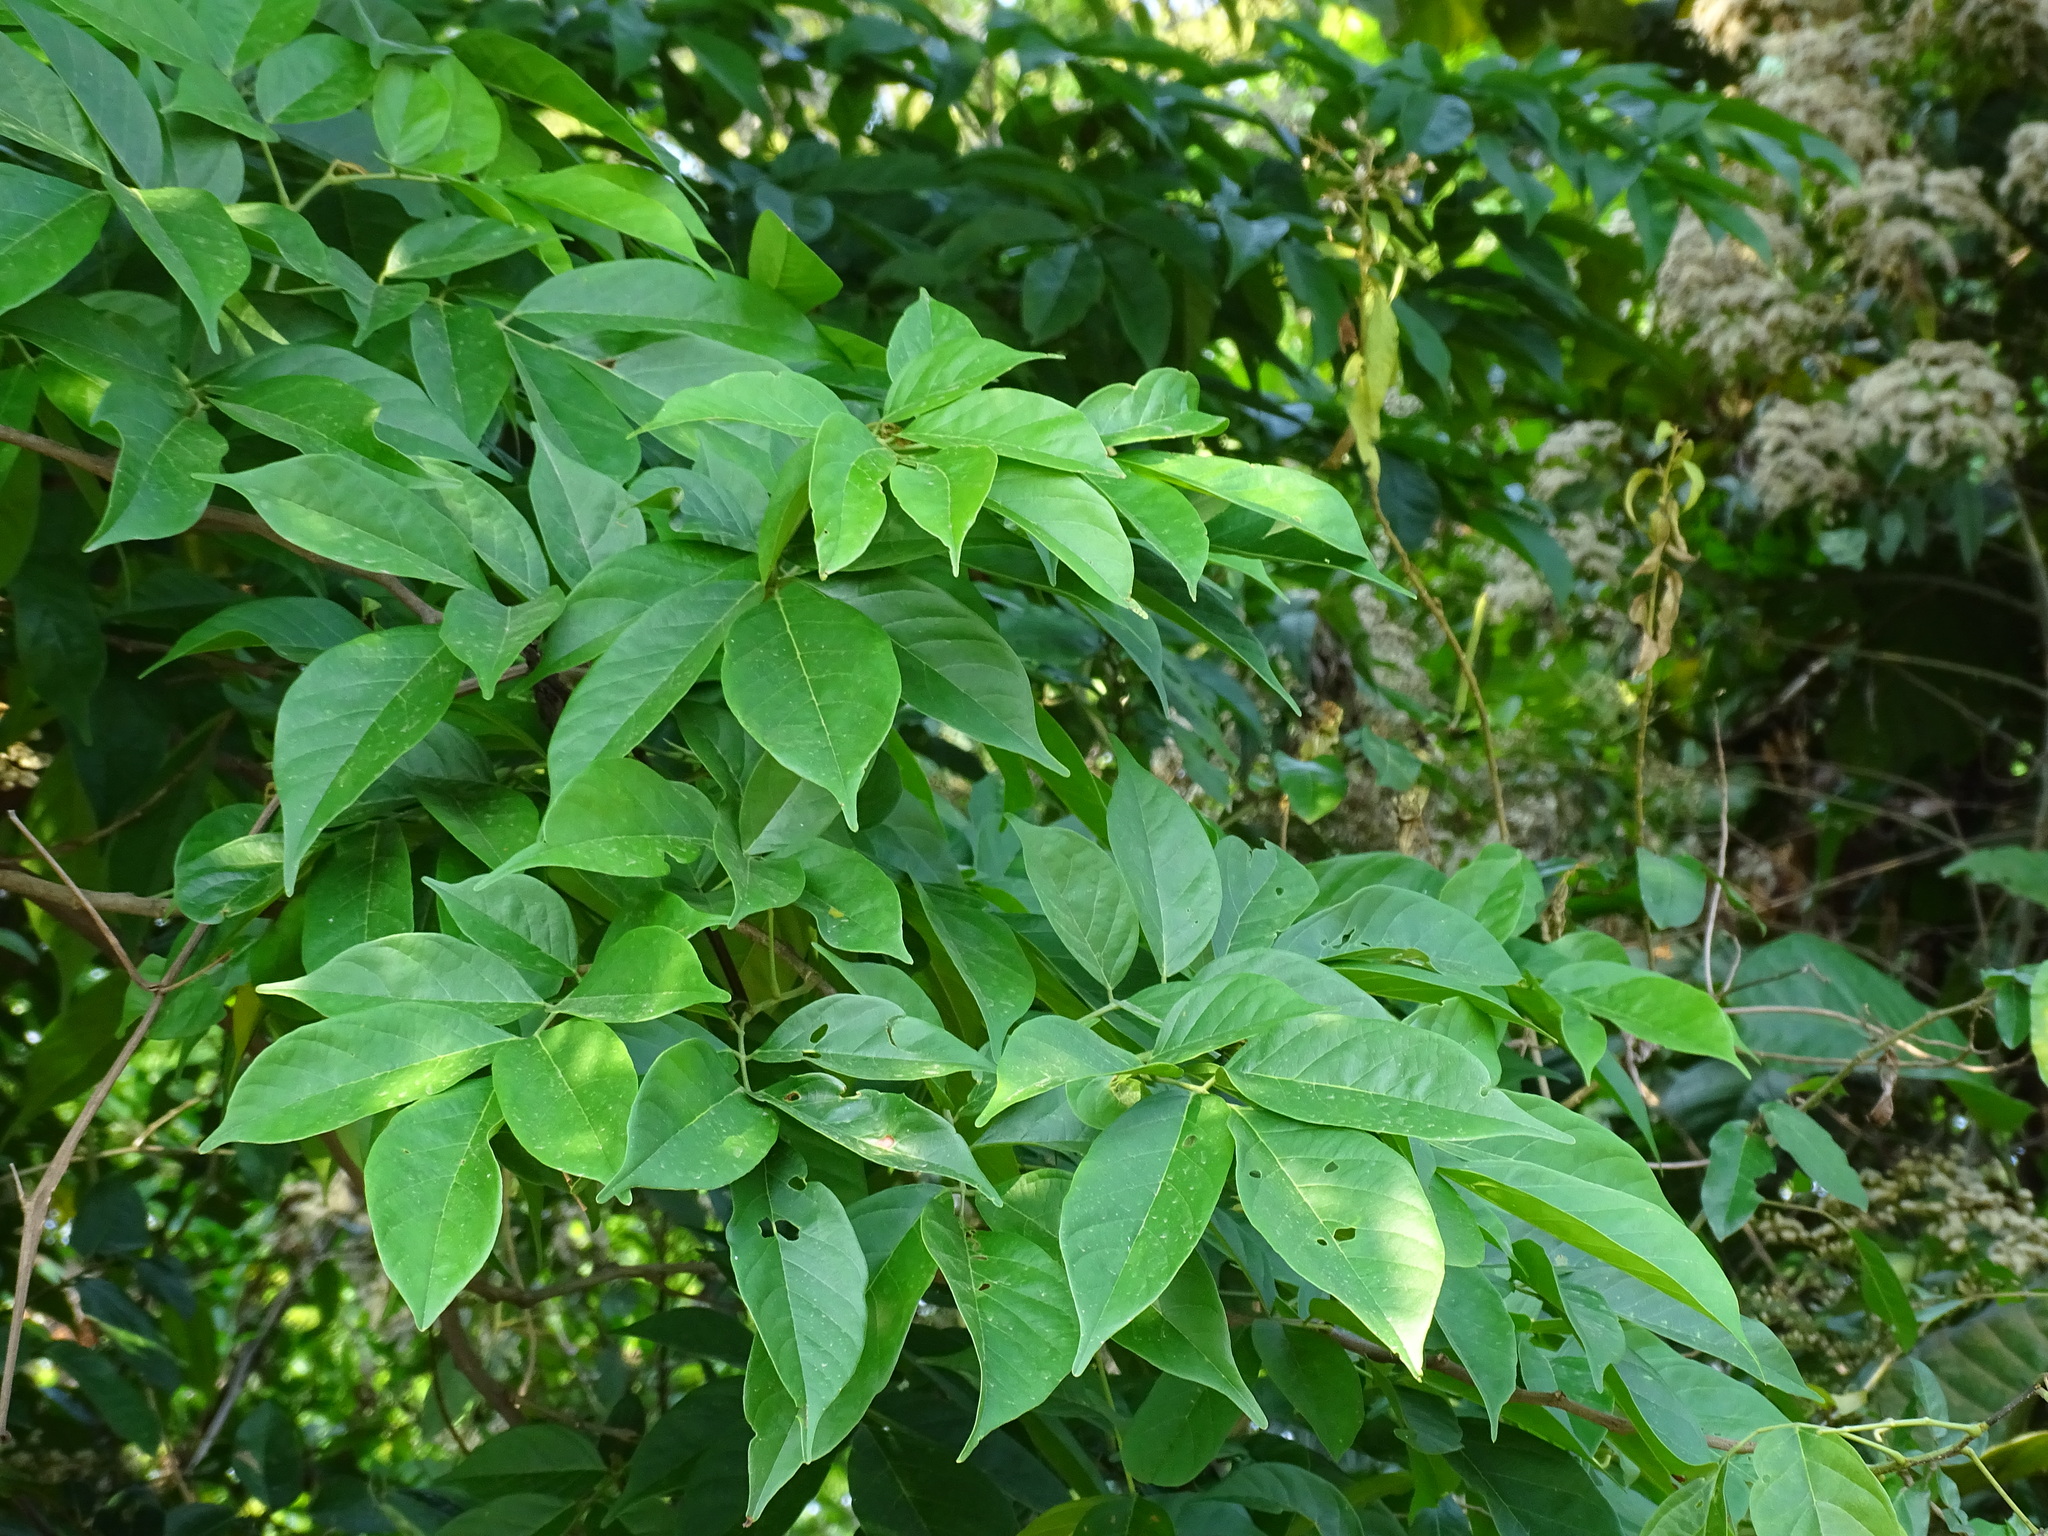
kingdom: Plantae
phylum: Tracheophyta
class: Magnoliopsida
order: Fabales
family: Fabaceae
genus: Lonchocarpus
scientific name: Lonchocarpus salvadorensis
